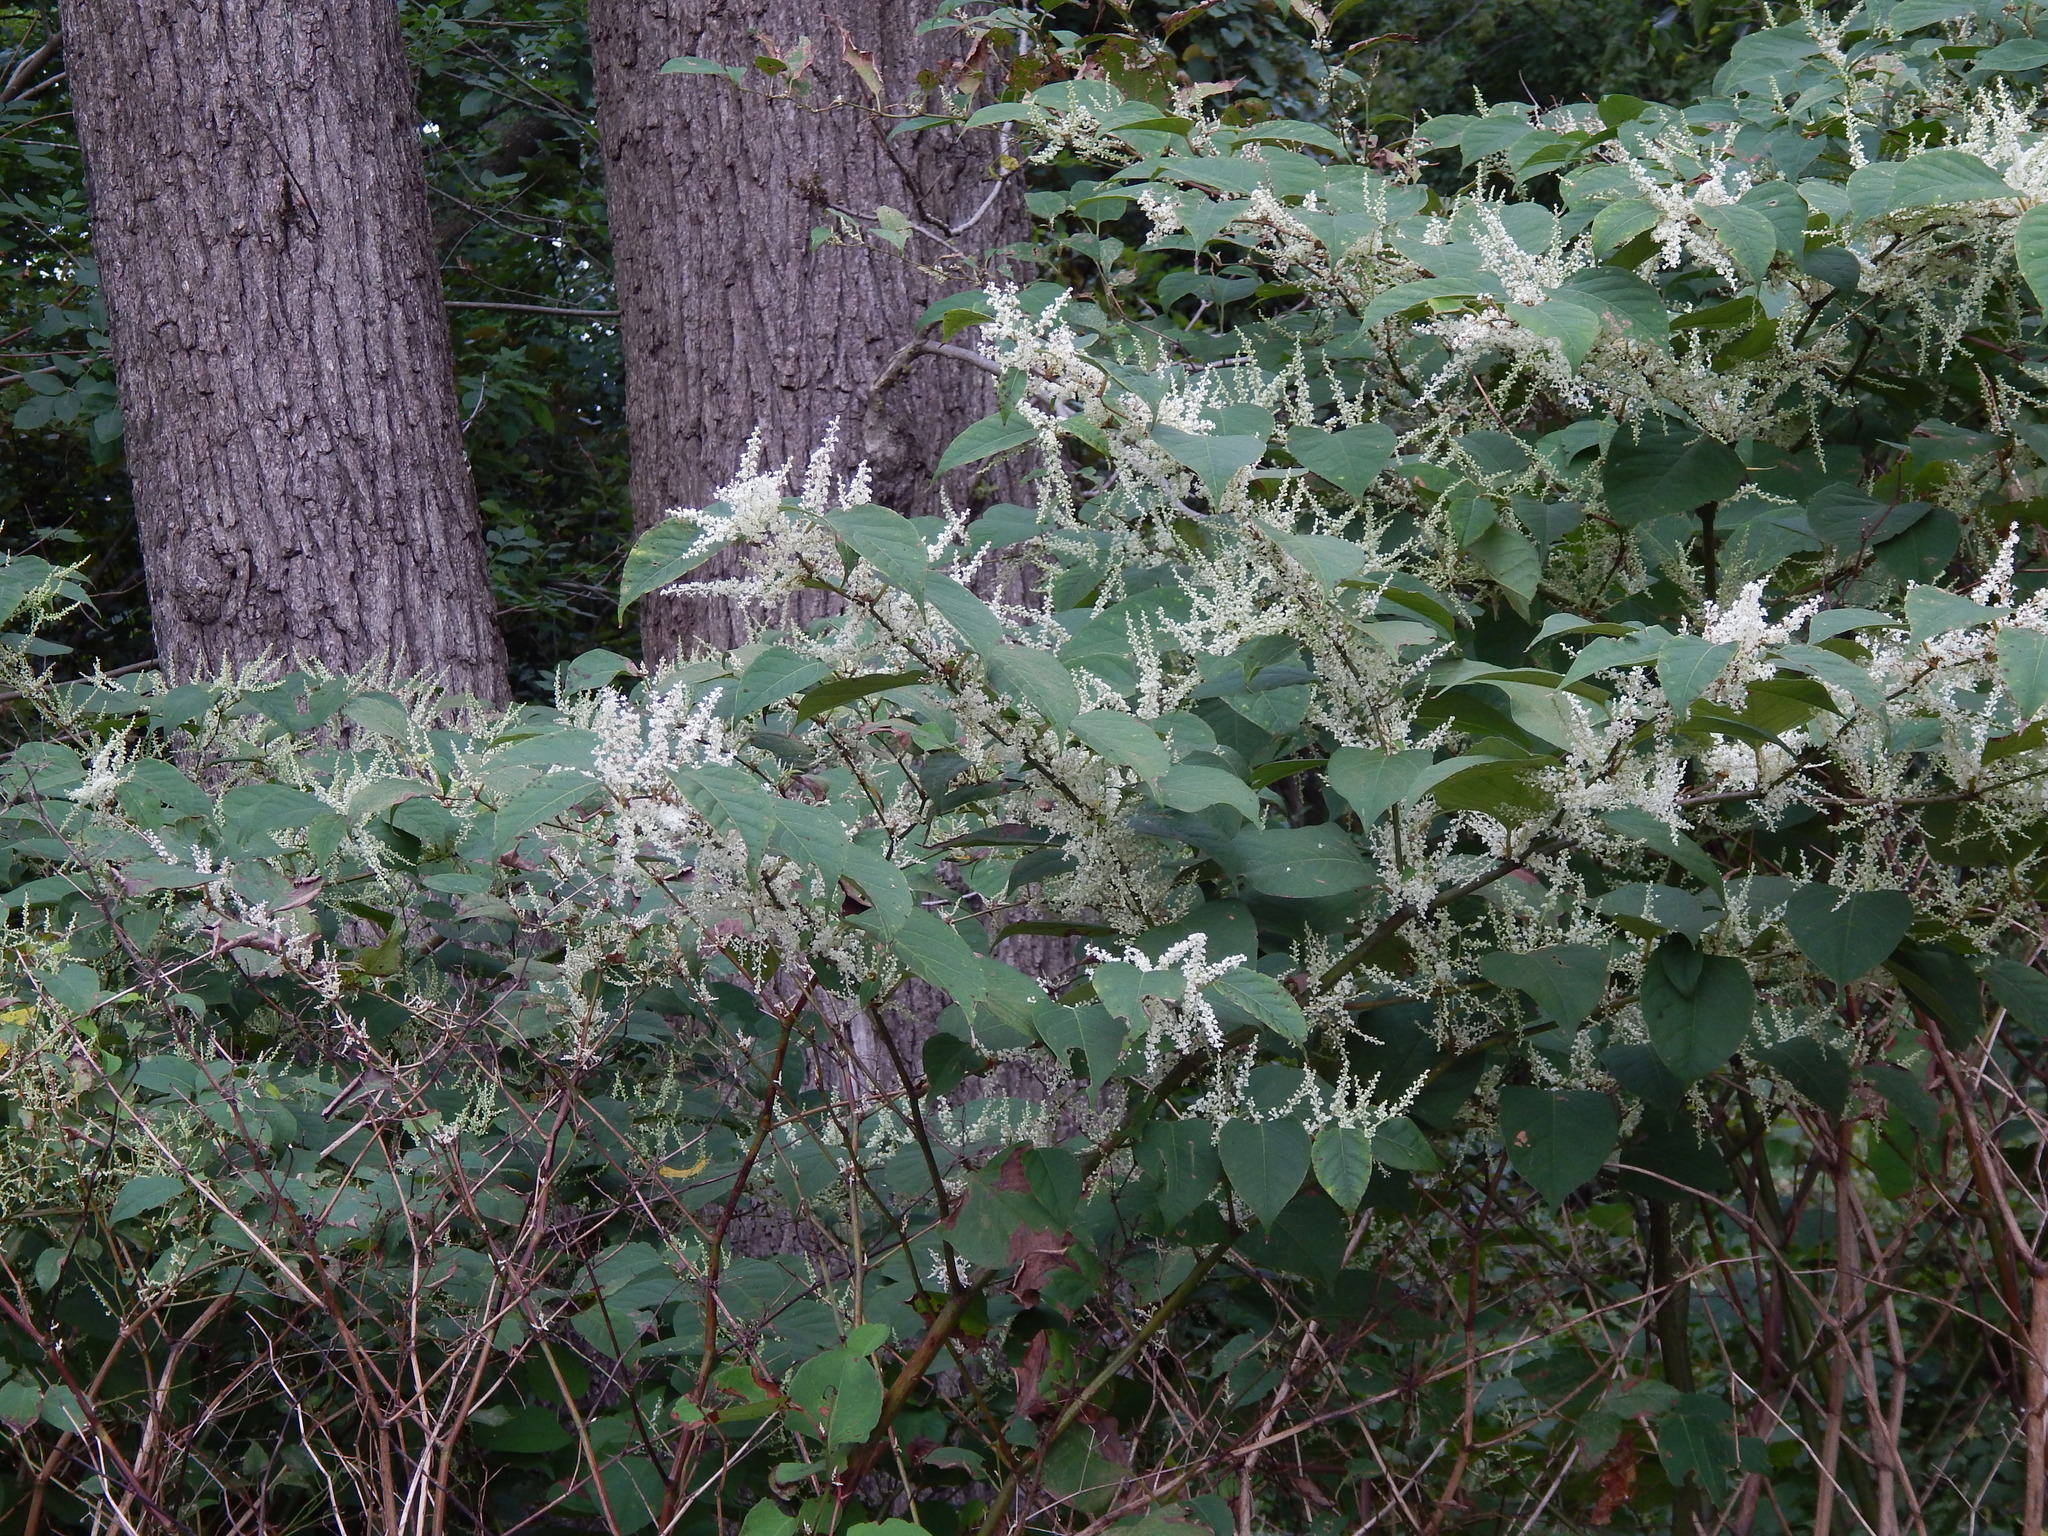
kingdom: Plantae
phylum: Tracheophyta
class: Magnoliopsida
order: Caryophyllales
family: Polygonaceae
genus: Reynoutria
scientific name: Reynoutria japonica
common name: Japanese knotweed
